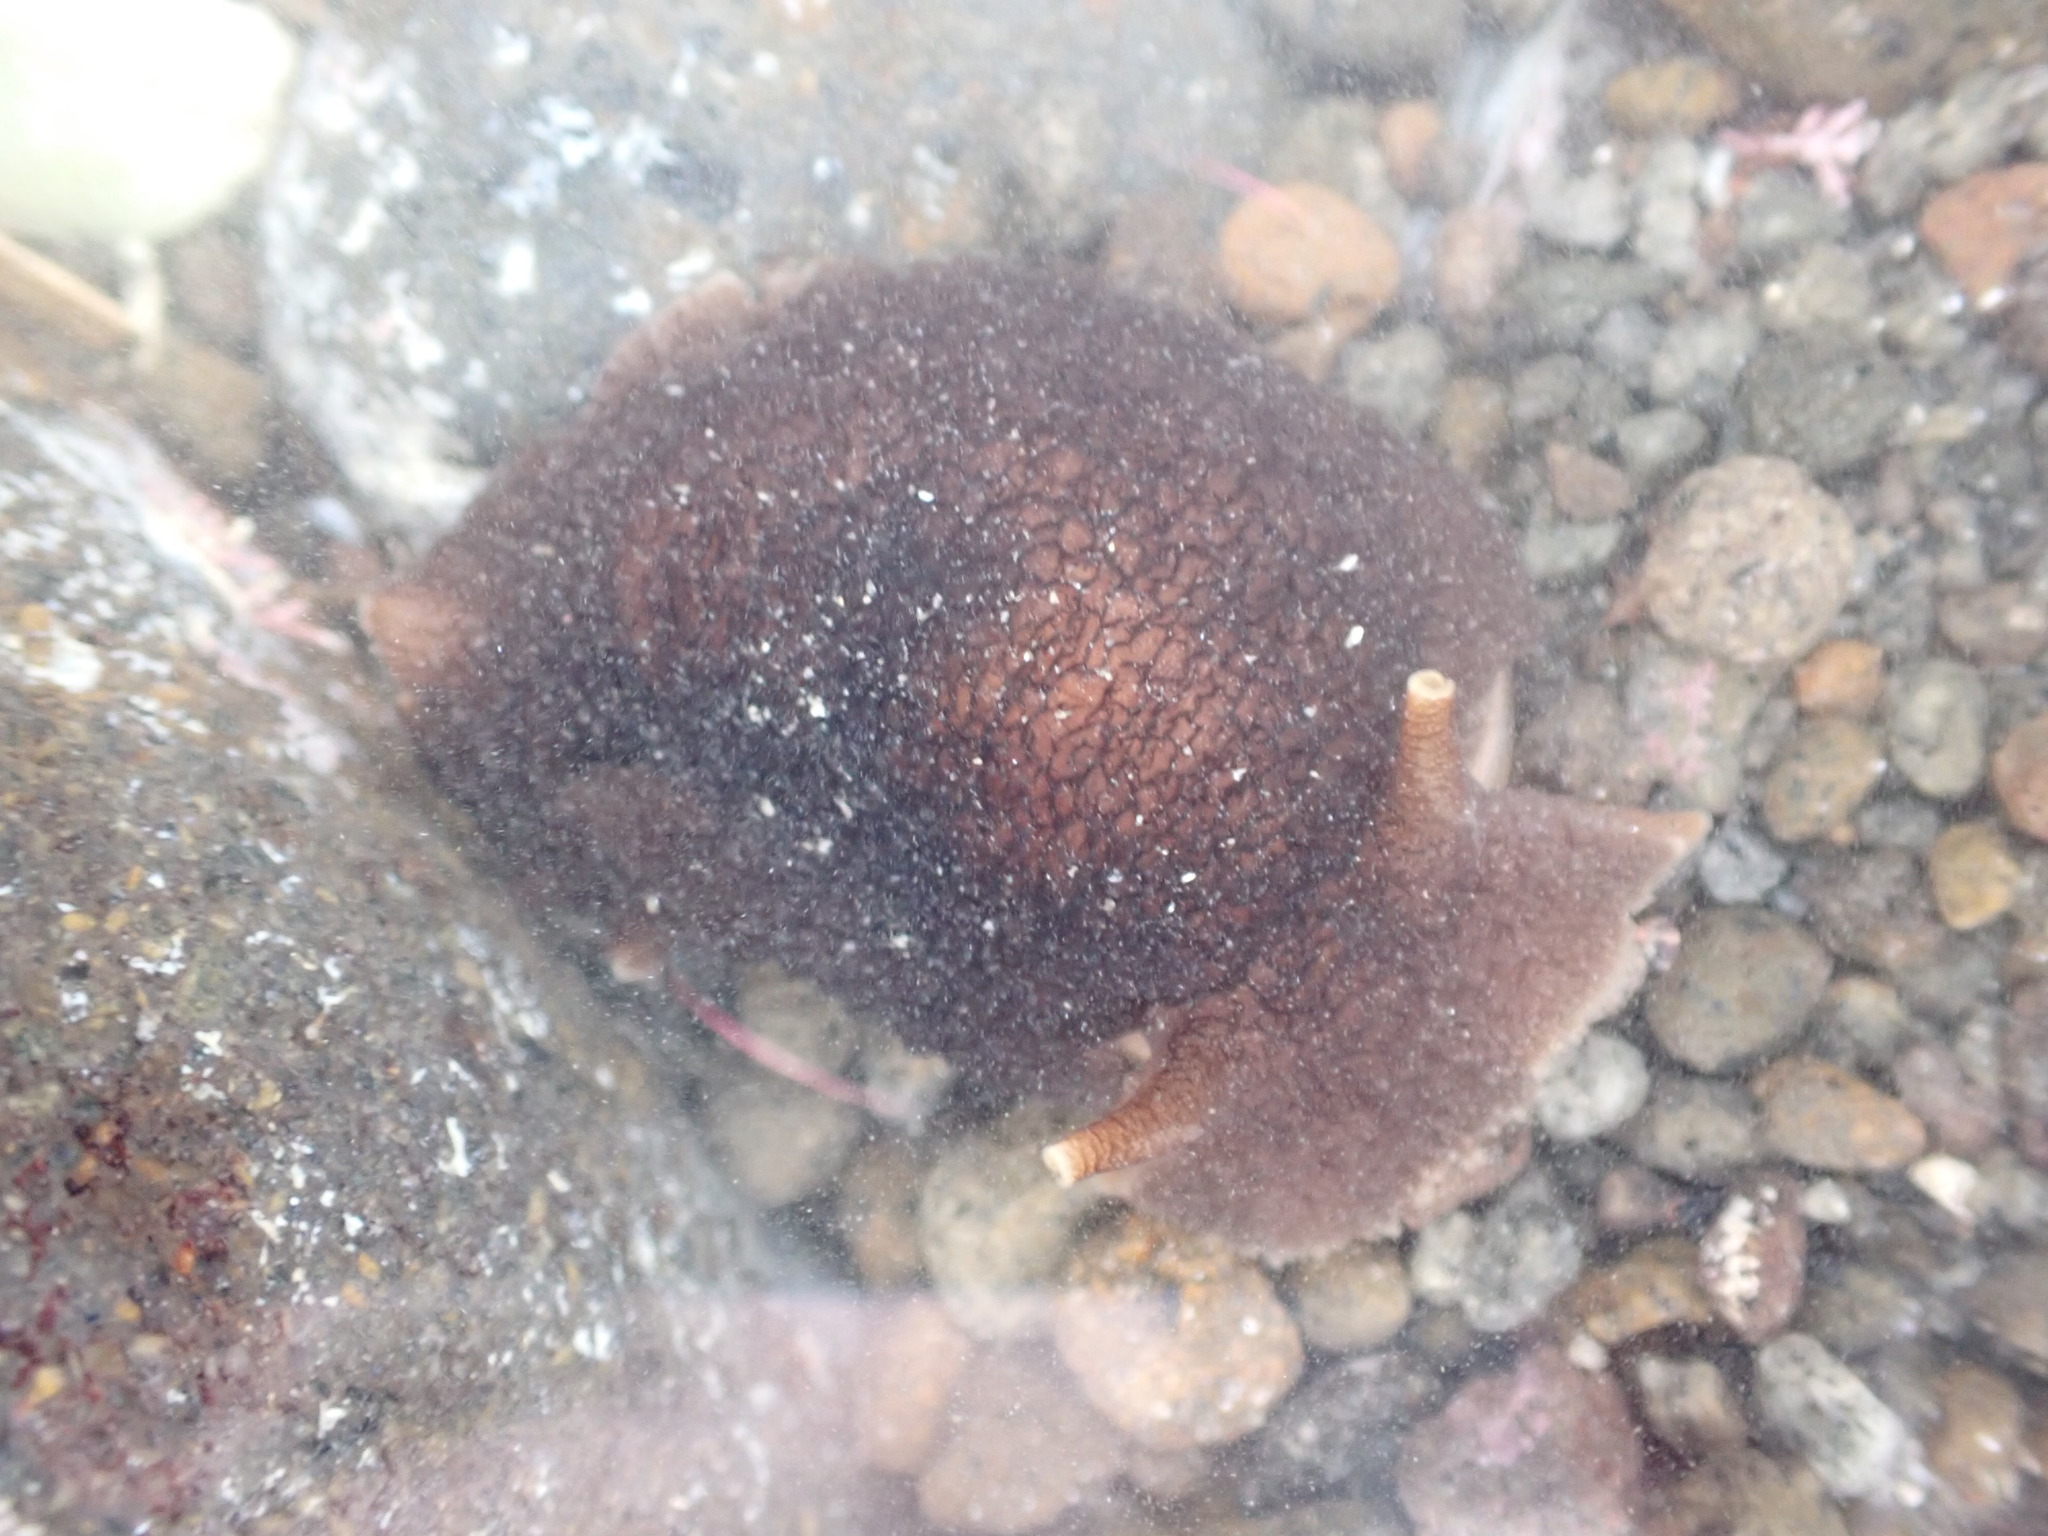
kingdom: Animalia
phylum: Mollusca
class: Gastropoda
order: Pleurobranchida
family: Pleurobranchaeidae
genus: Pleurobranchaea
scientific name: Pleurobranchaea maculata
